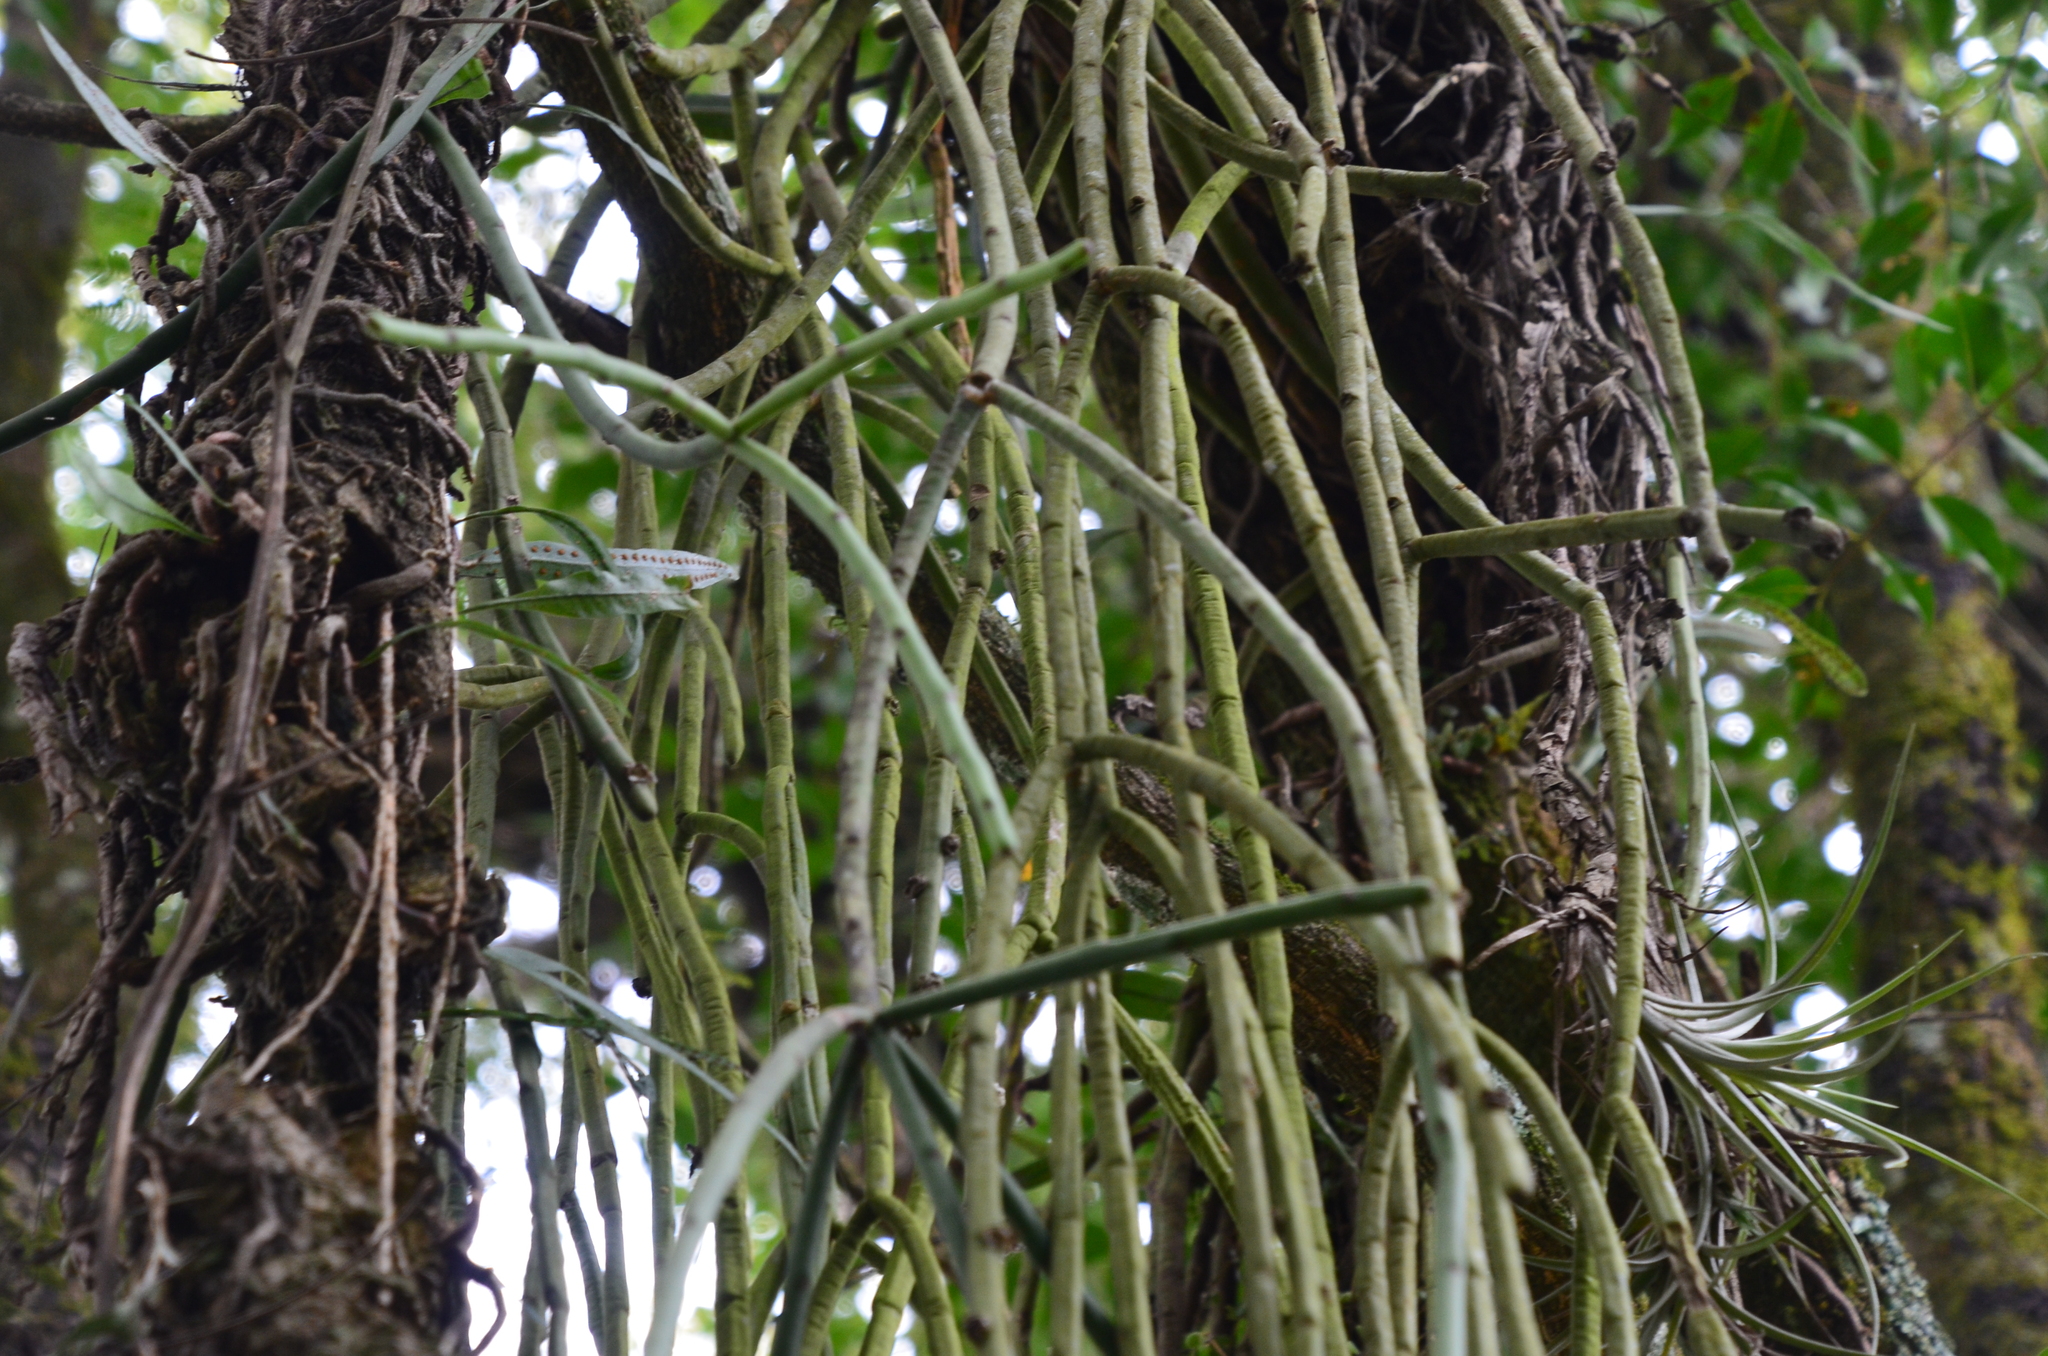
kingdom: Plantae
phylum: Tracheophyta
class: Magnoliopsida
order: Caryophyllales
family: Cactaceae
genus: Rhipsalis
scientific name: Rhipsalis floccosa
